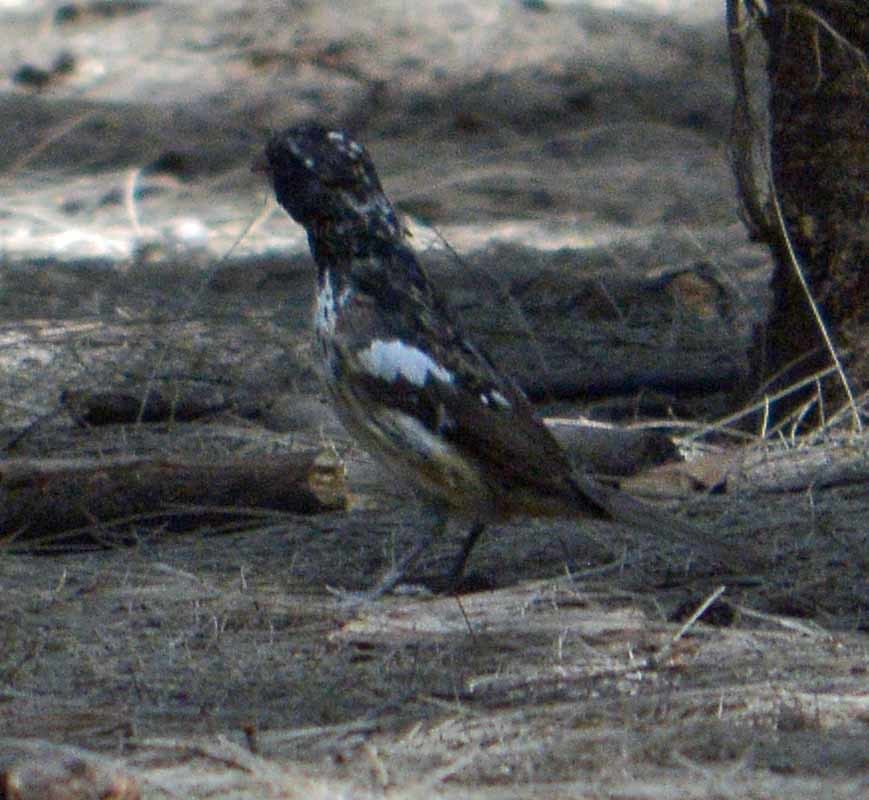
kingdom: Animalia
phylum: Chordata
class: Aves
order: Passeriformes
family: Cardinalidae
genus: Pheucticus
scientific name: Pheucticus ludovicianus
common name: Rose-breasted grosbeak
